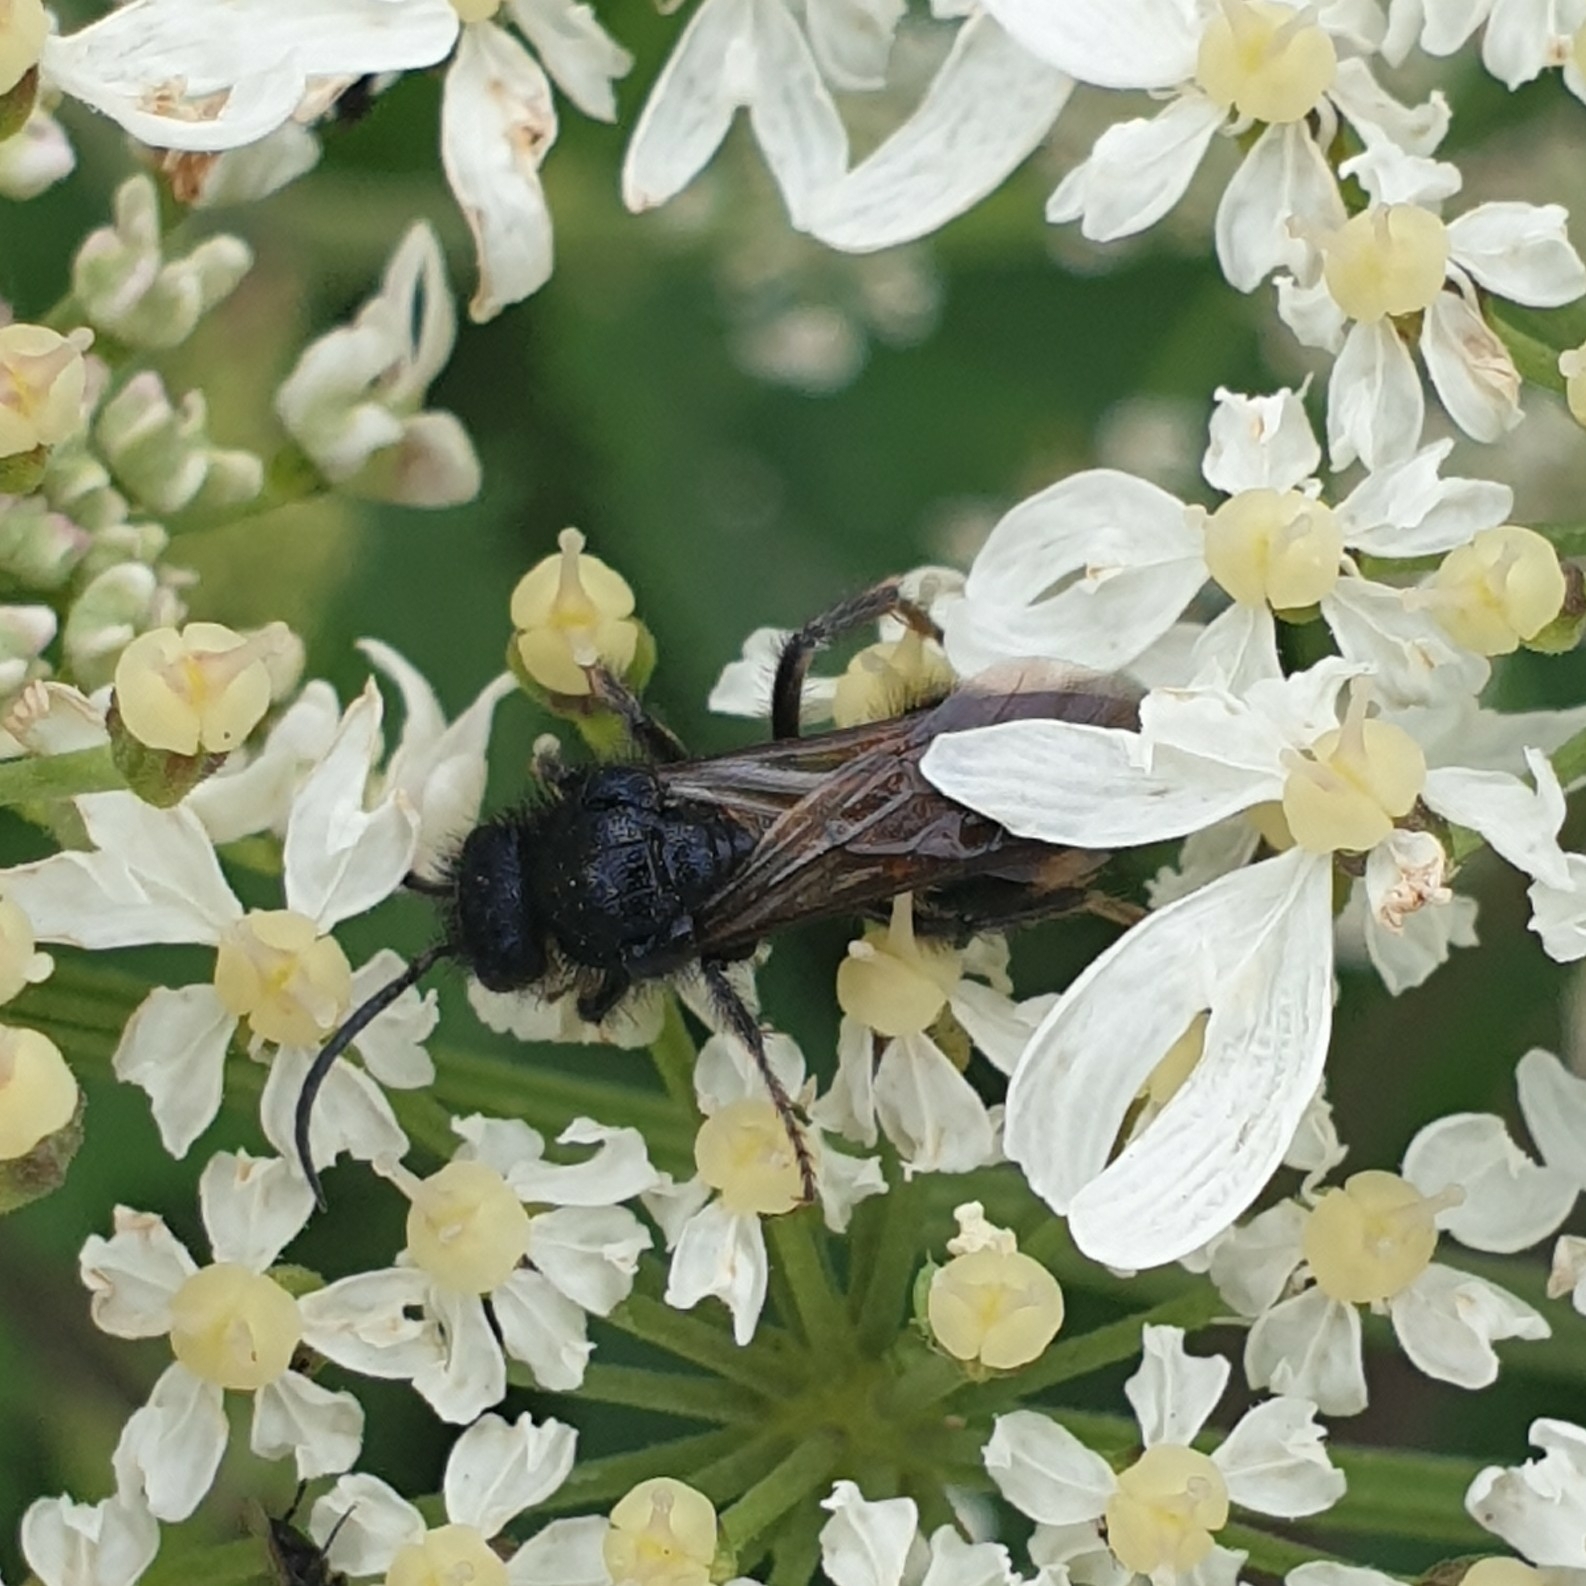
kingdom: Animalia
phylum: Arthropoda
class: Insecta
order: Hymenoptera
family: Mutillidae
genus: Mutilla
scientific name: Mutilla europaea
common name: Large velvet ant
